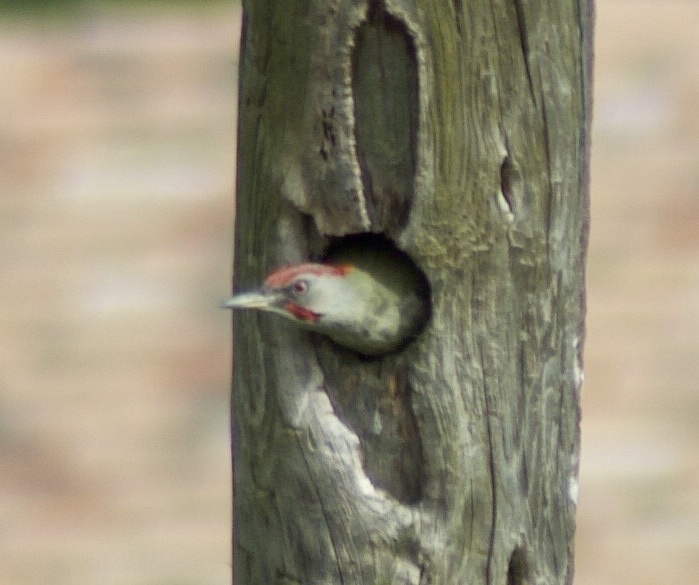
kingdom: Animalia
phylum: Chordata
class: Aves
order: Piciformes
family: Picidae
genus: Picus
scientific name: Picus sharpei
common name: Iberian green woodpecker
